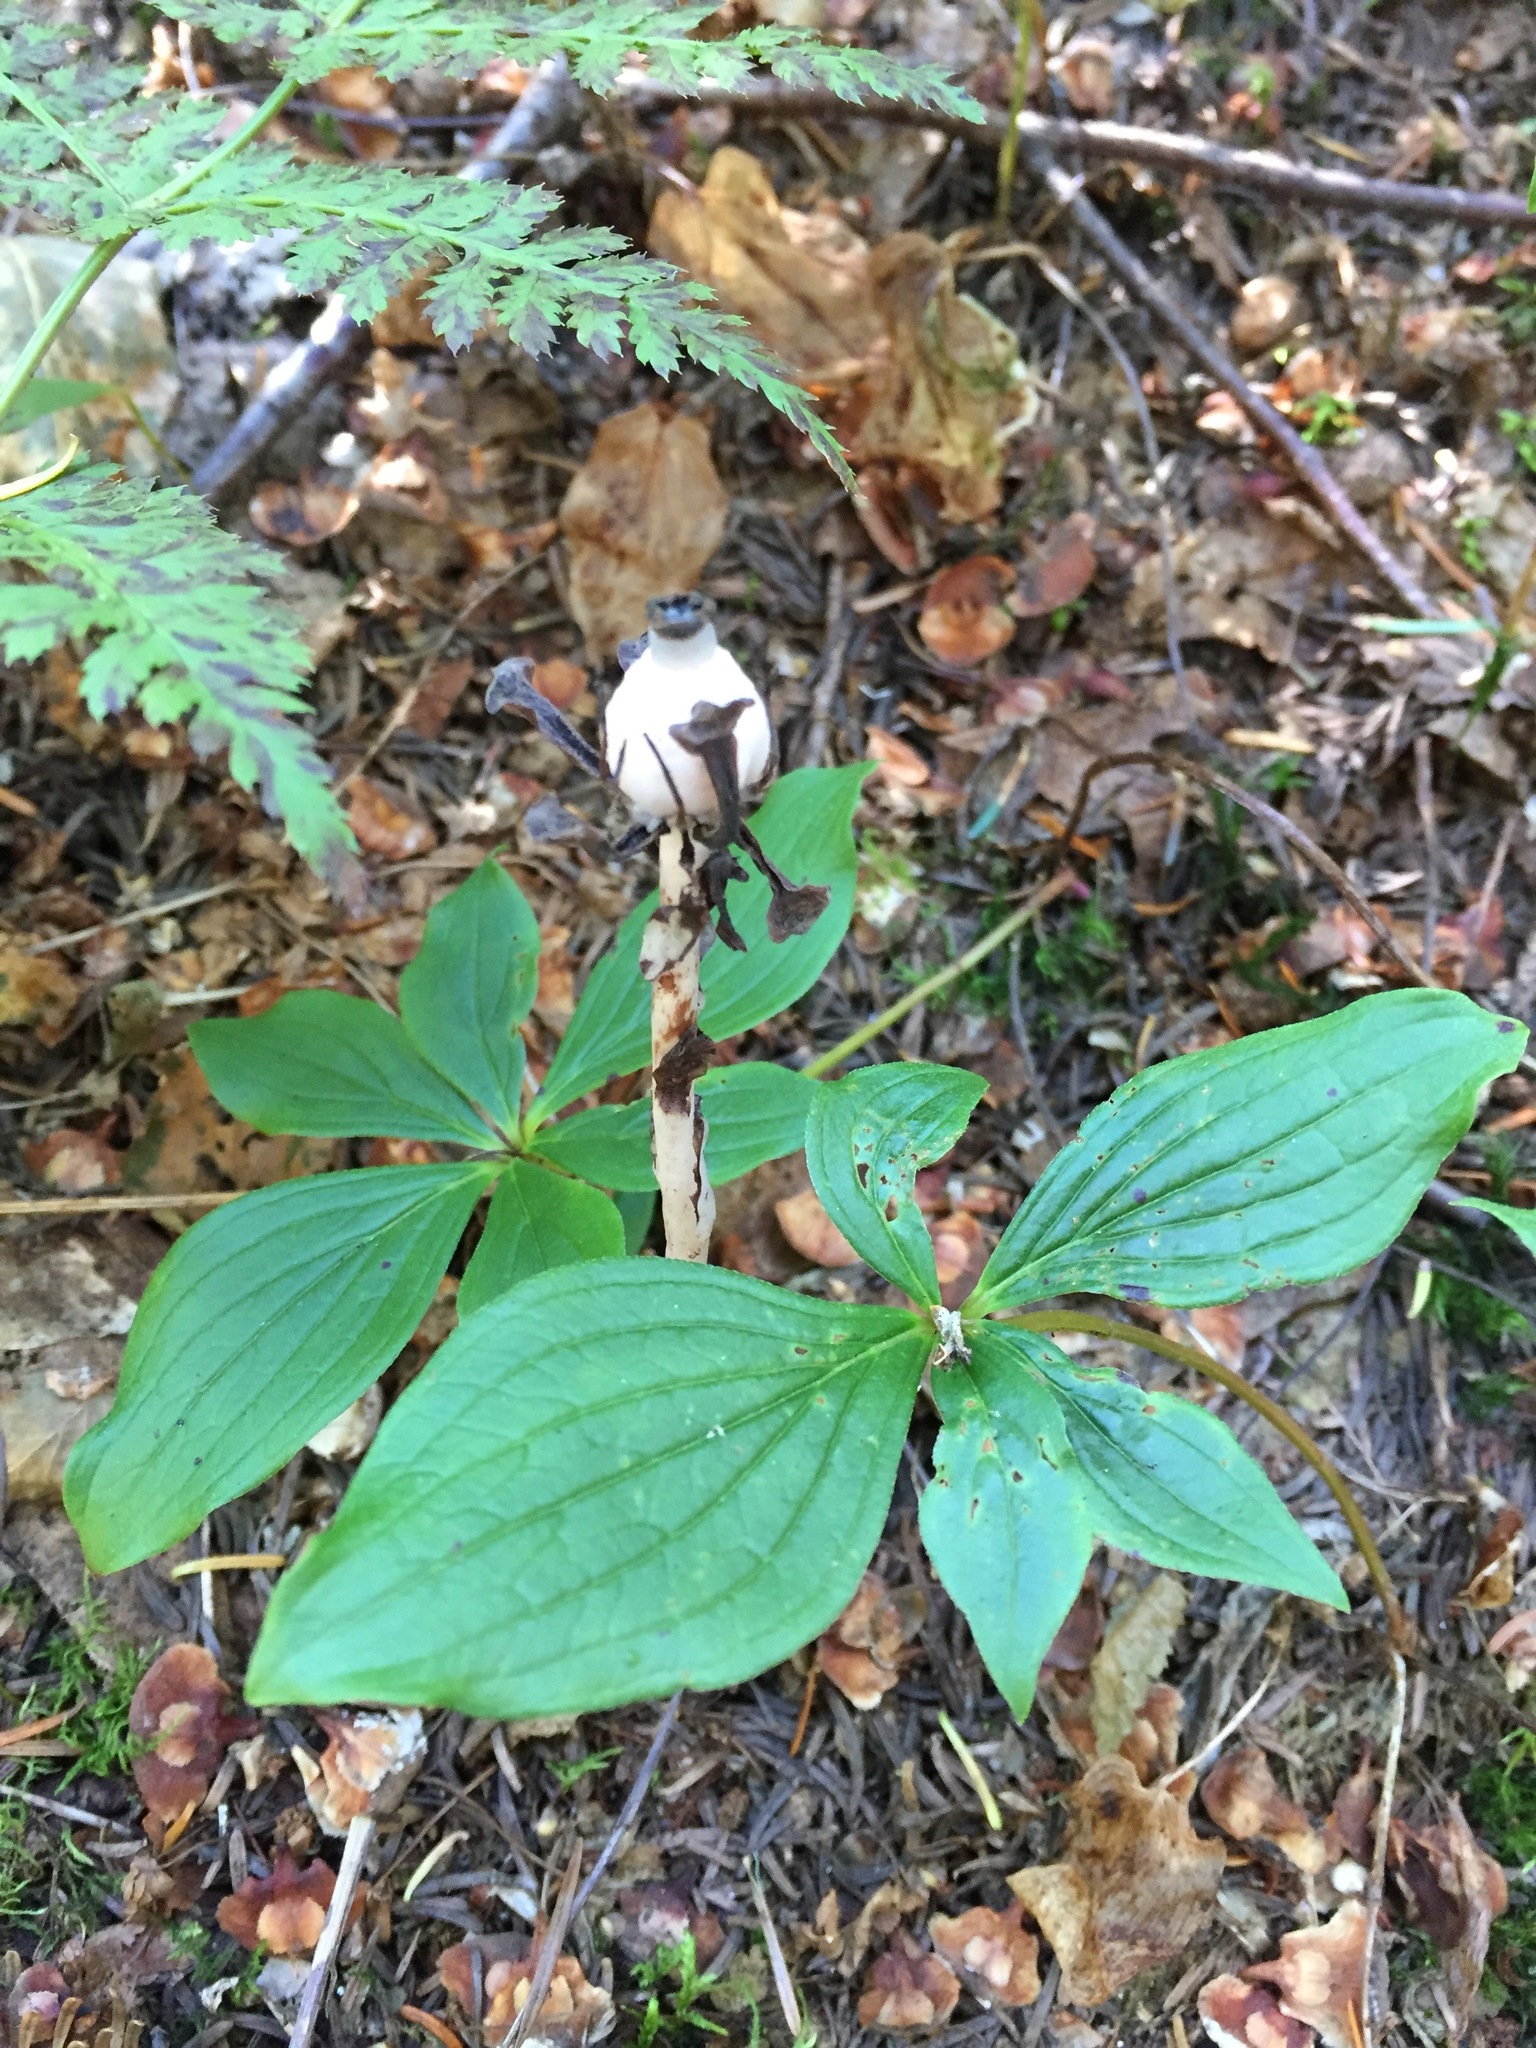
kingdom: Plantae
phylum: Tracheophyta
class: Magnoliopsida
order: Ericales
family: Ericaceae
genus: Monotropa
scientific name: Monotropa uniflora
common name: Convulsion root
